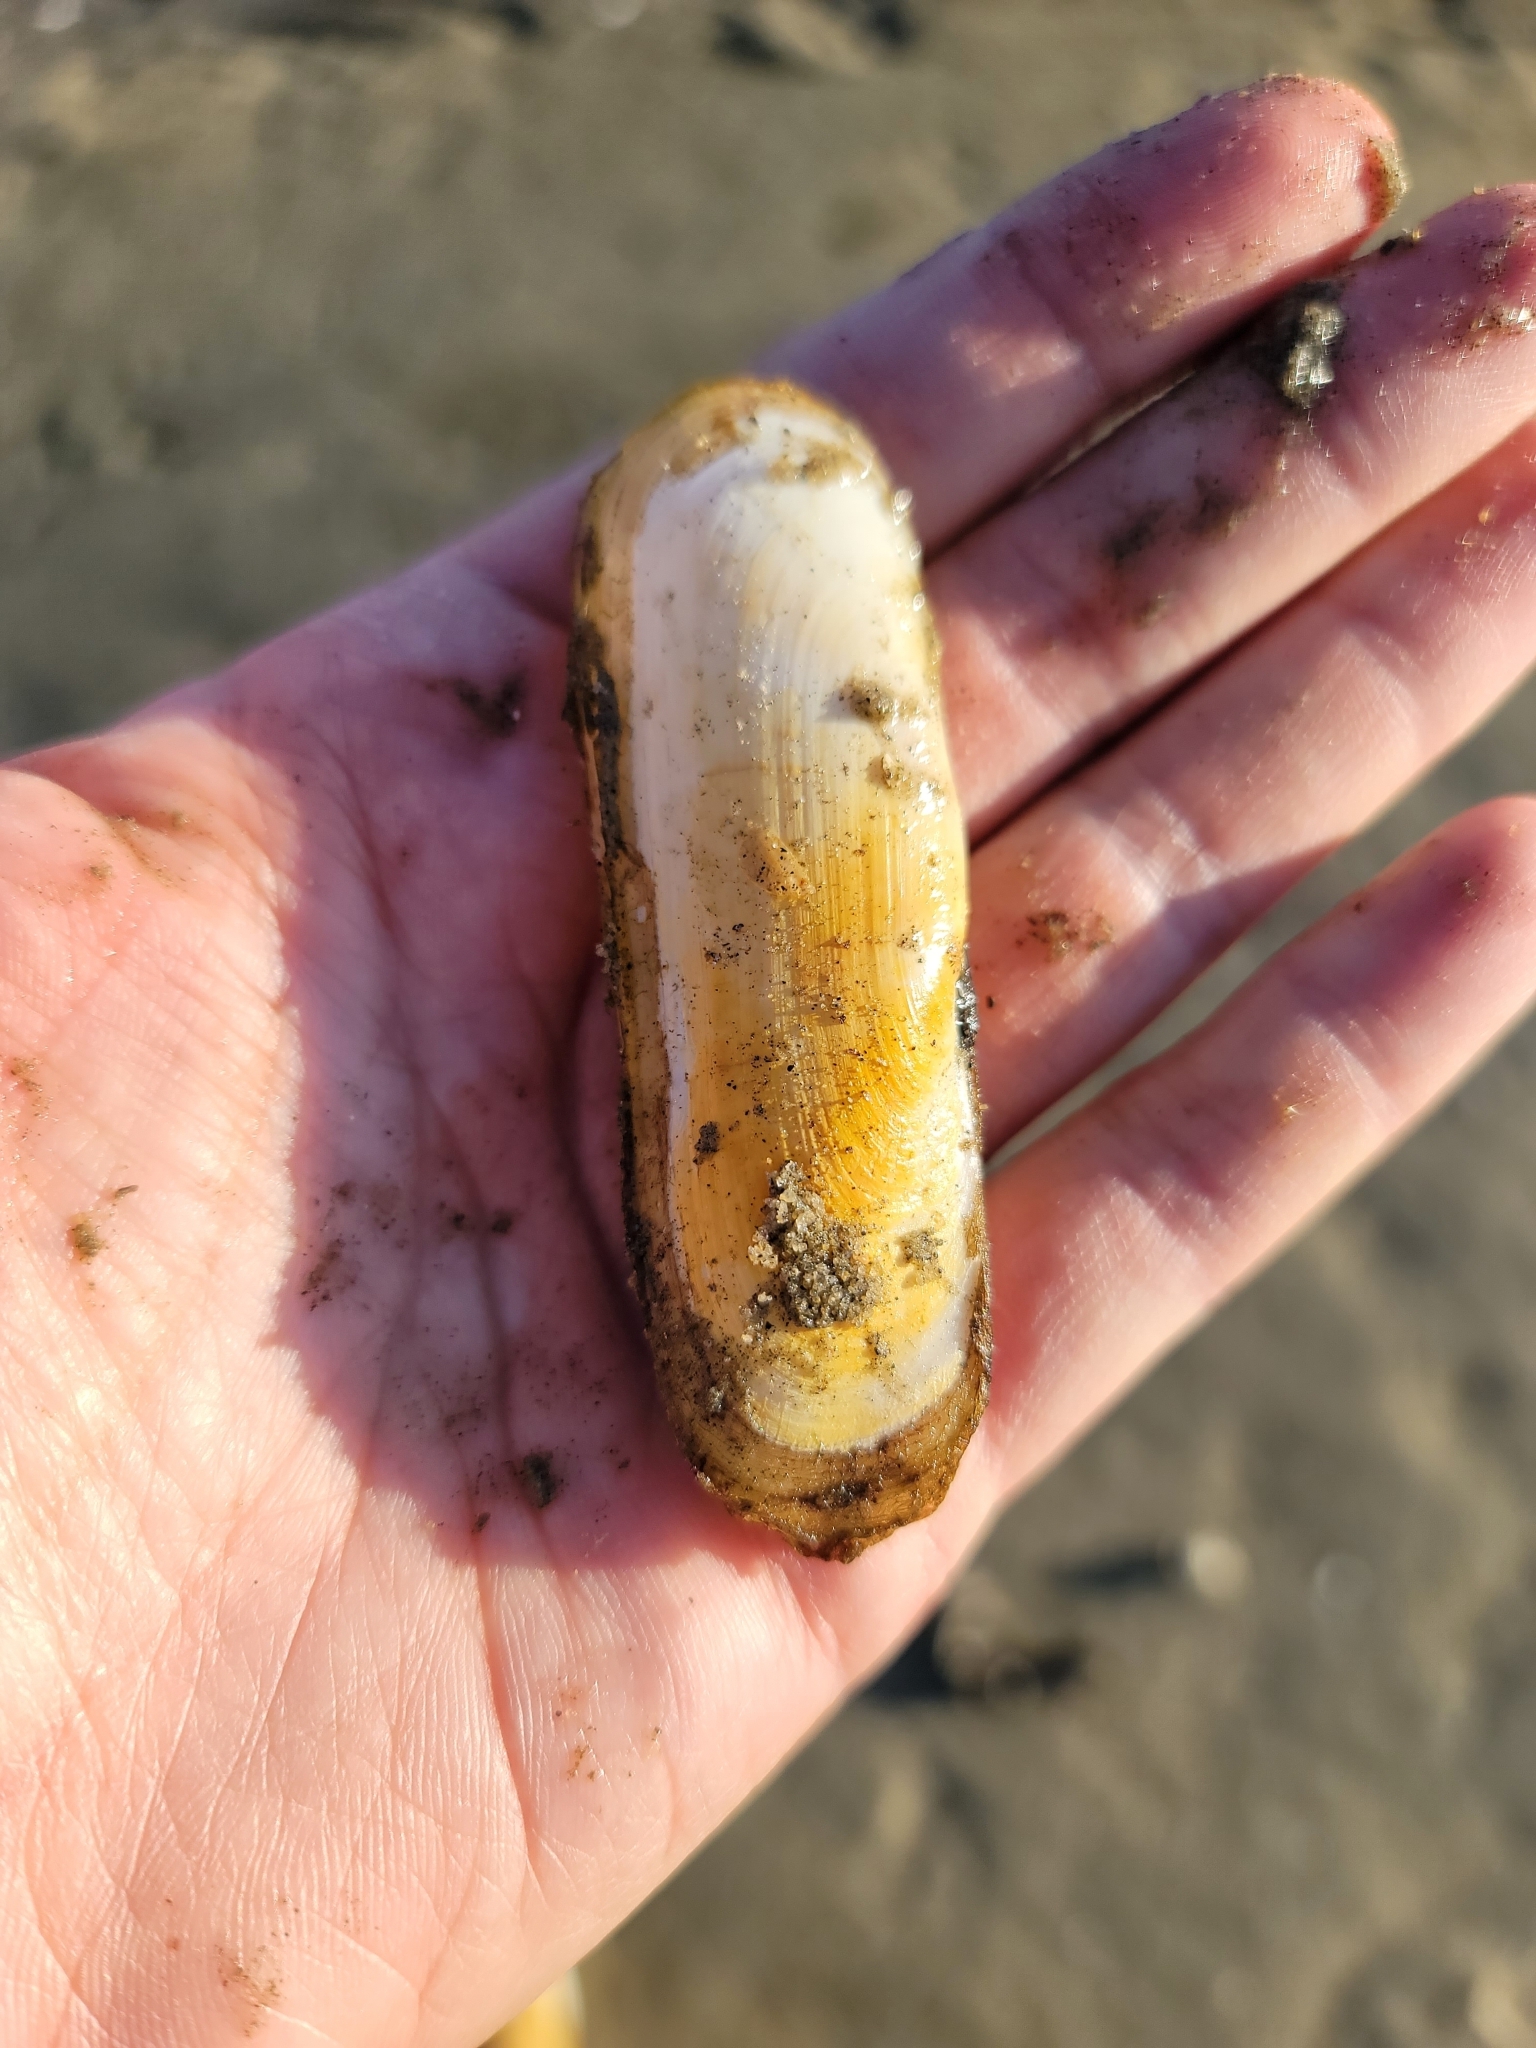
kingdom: Animalia
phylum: Mollusca
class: Bivalvia
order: Cardiida
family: Solecurtidae
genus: Tagelus
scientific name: Tagelus californianus
